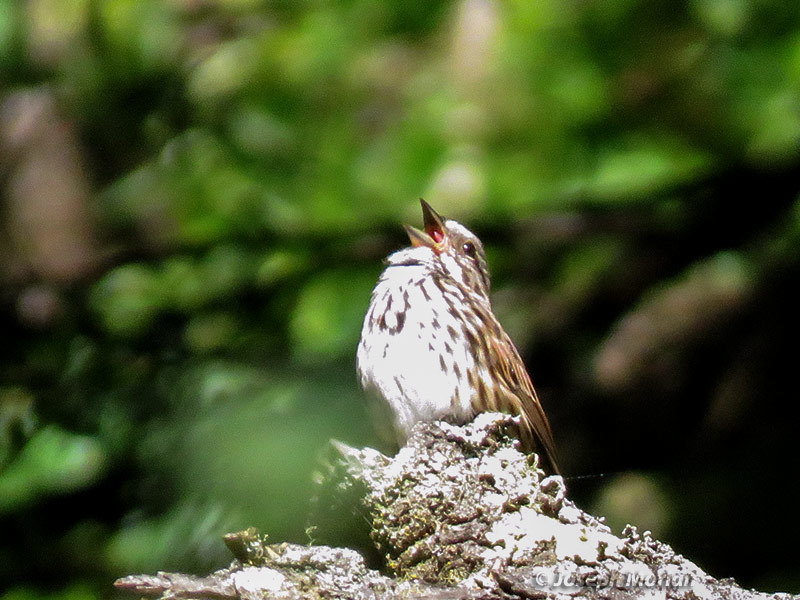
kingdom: Animalia
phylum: Chordata
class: Aves
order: Passeriformes
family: Passerellidae
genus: Melospiza
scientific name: Melospiza melodia
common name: Song sparrow
